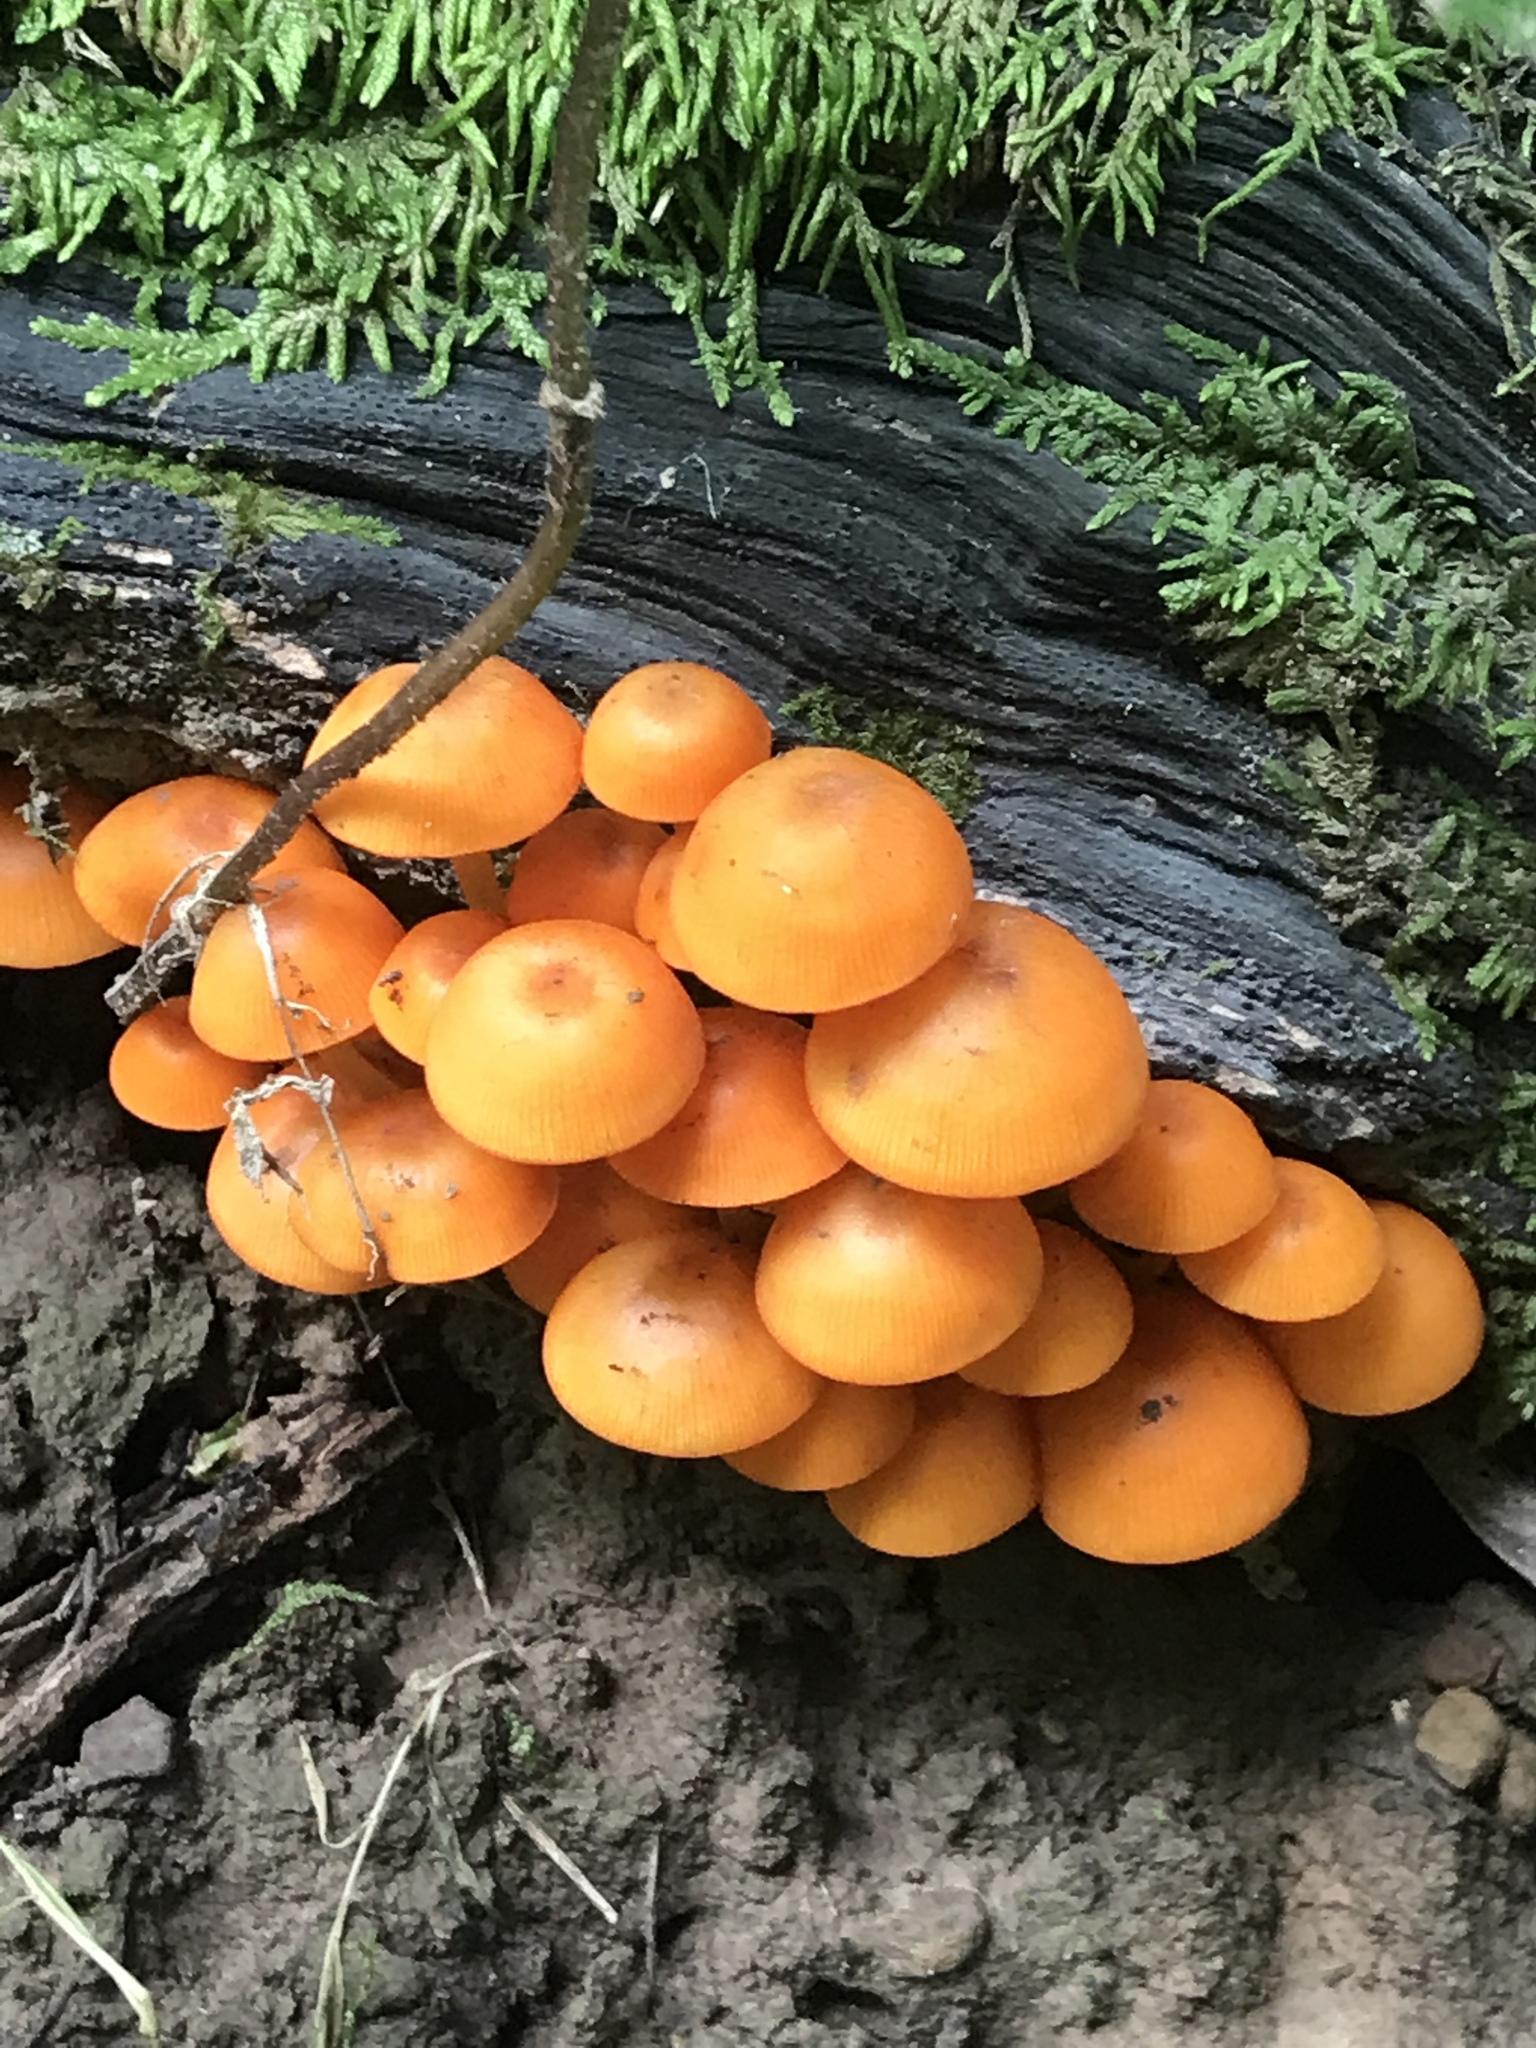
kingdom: Fungi
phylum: Basidiomycota
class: Agaricomycetes
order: Agaricales
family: Mycenaceae
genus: Mycena
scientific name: Mycena leaiana
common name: Orange mycena
